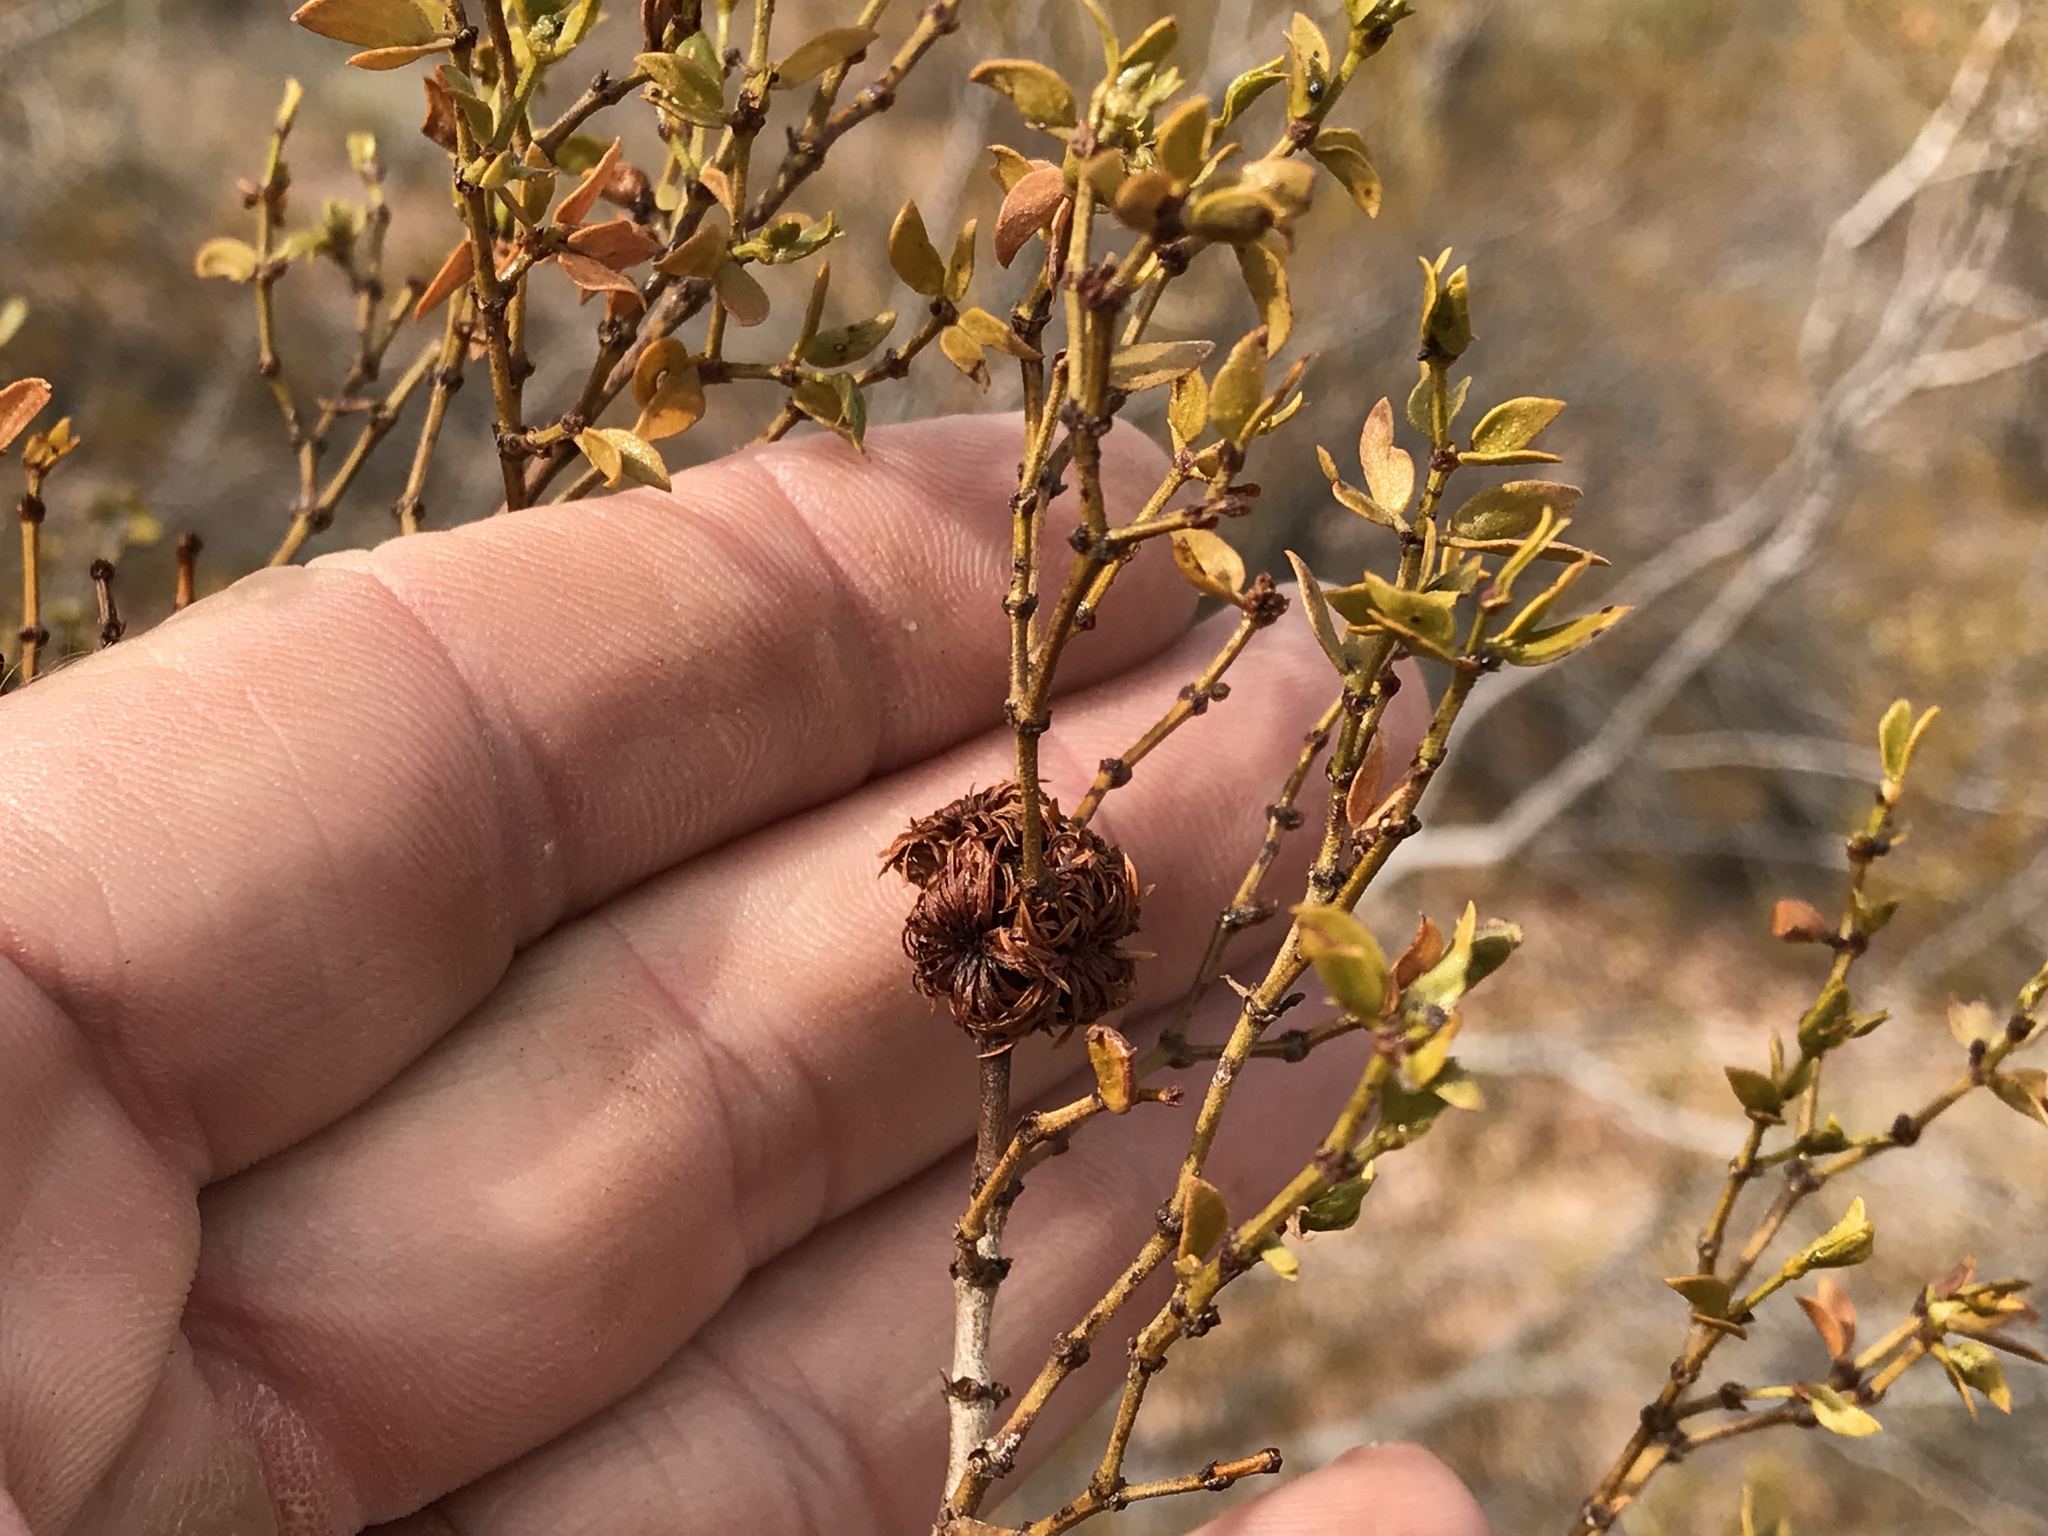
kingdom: Animalia
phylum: Arthropoda
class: Insecta
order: Diptera
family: Cecidomyiidae
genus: Asphondylia
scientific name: Asphondylia auripila
